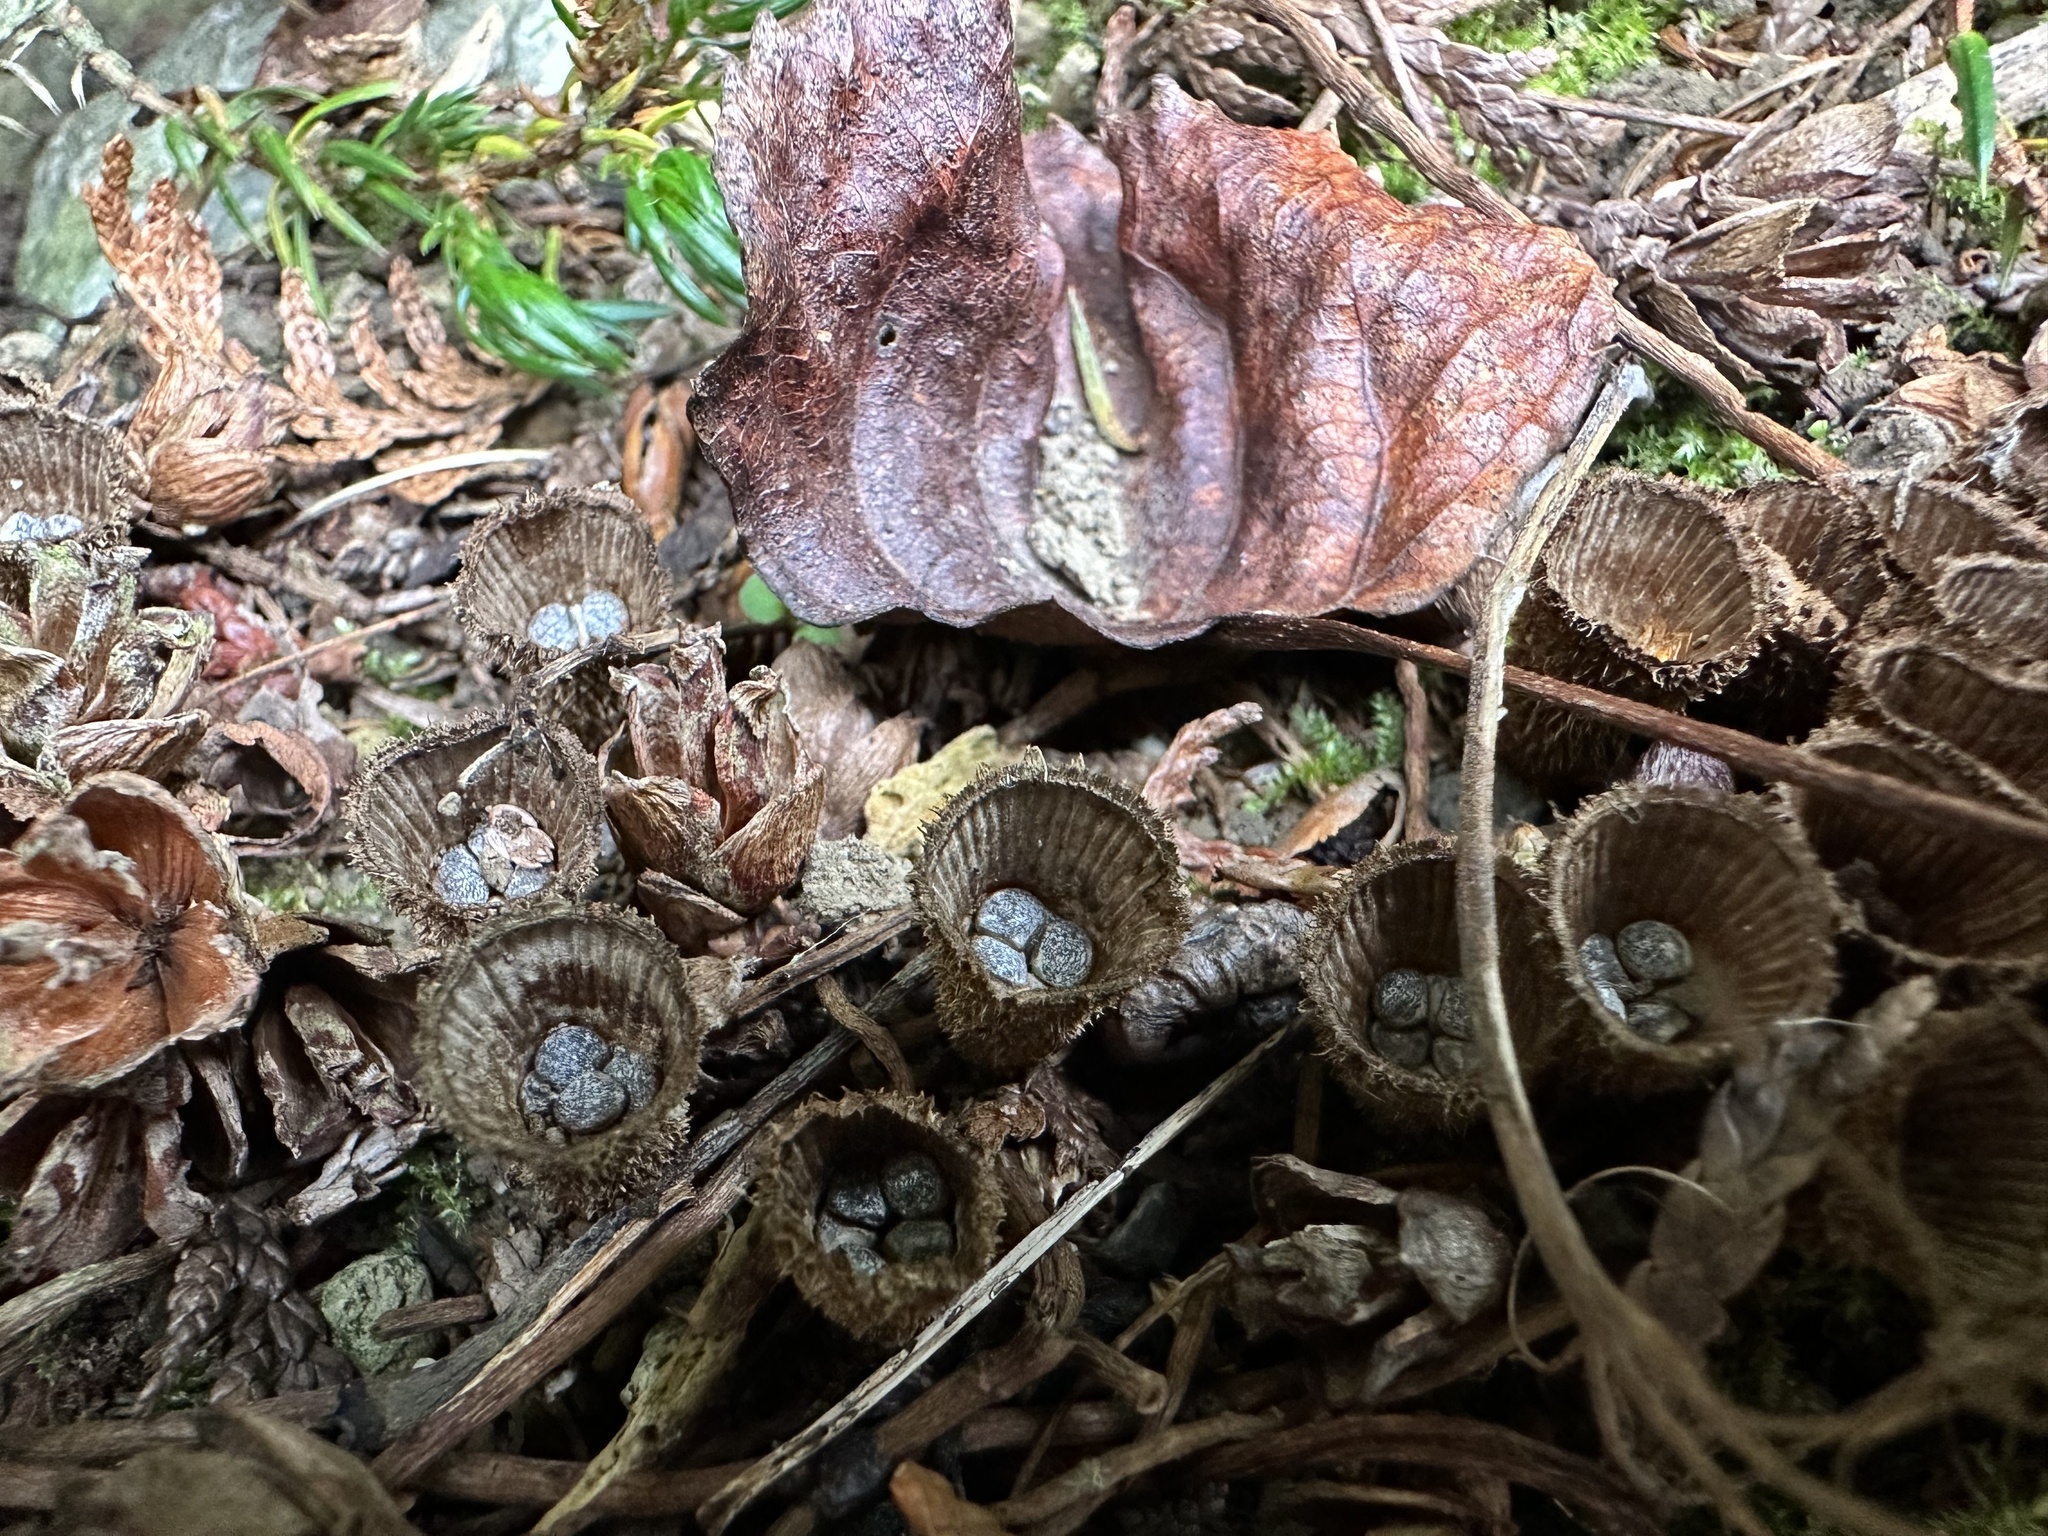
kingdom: Fungi
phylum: Basidiomycota
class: Agaricomycetes
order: Agaricales
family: Agaricaceae
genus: Cyathus
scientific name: Cyathus striatus
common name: Fluted bird's nest
